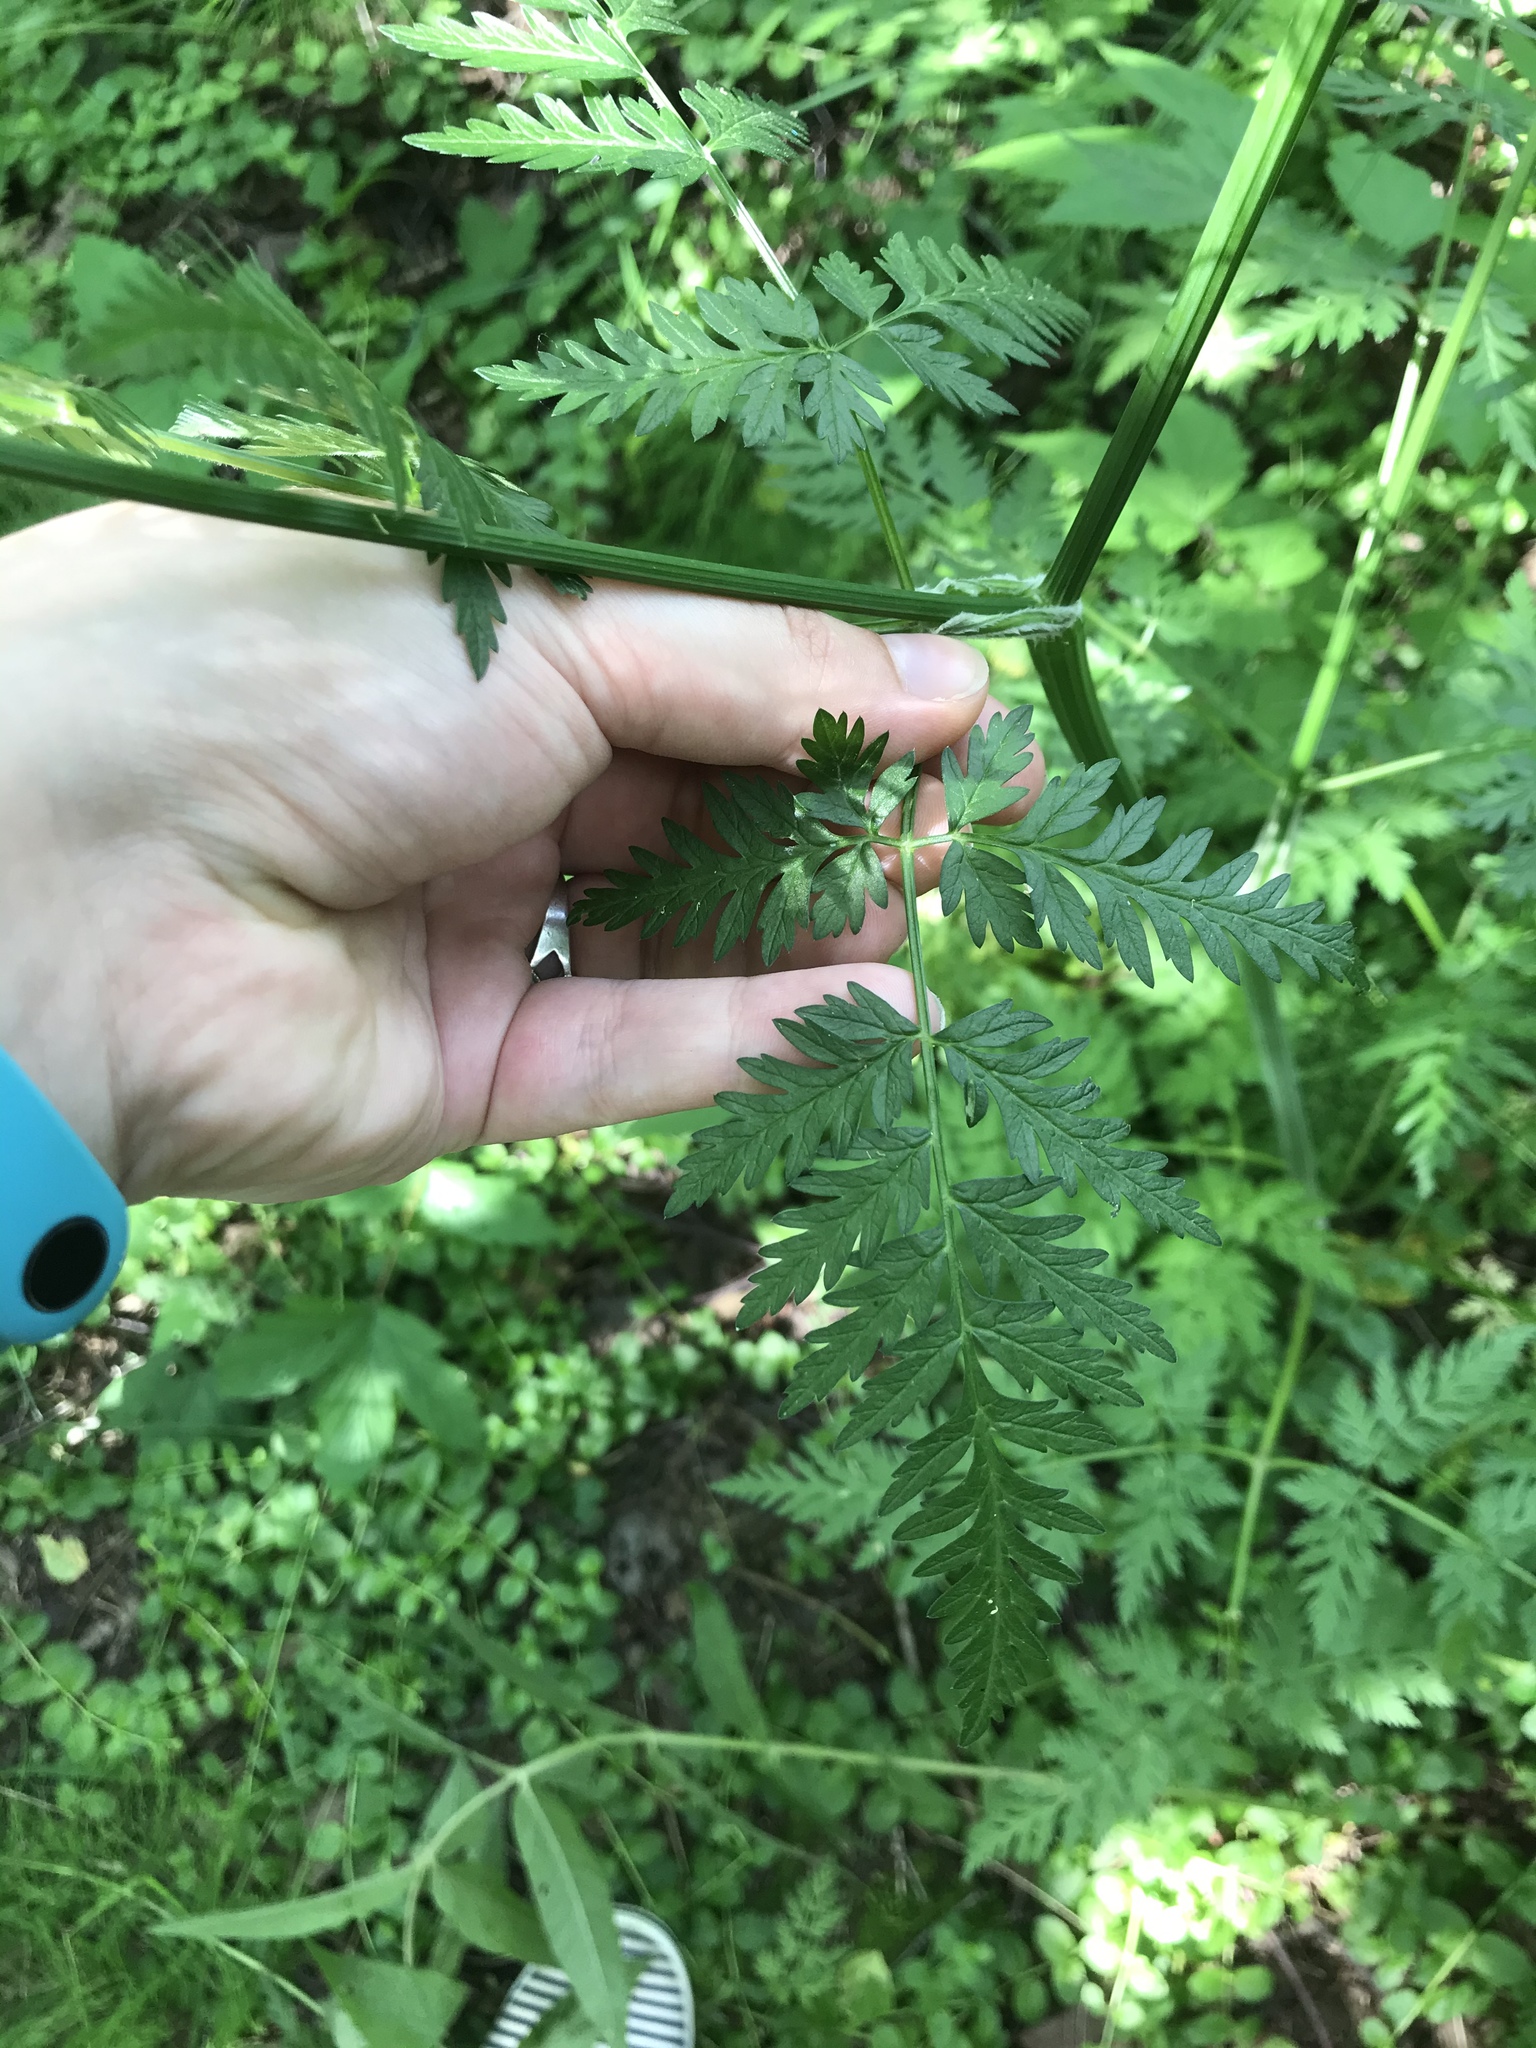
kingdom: Plantae
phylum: Tracheophyta
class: Magnoliopsida
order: Apiales
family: Apiaceae
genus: Anthriscus
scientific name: Anthriscus sylvestris
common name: Cow parsley
